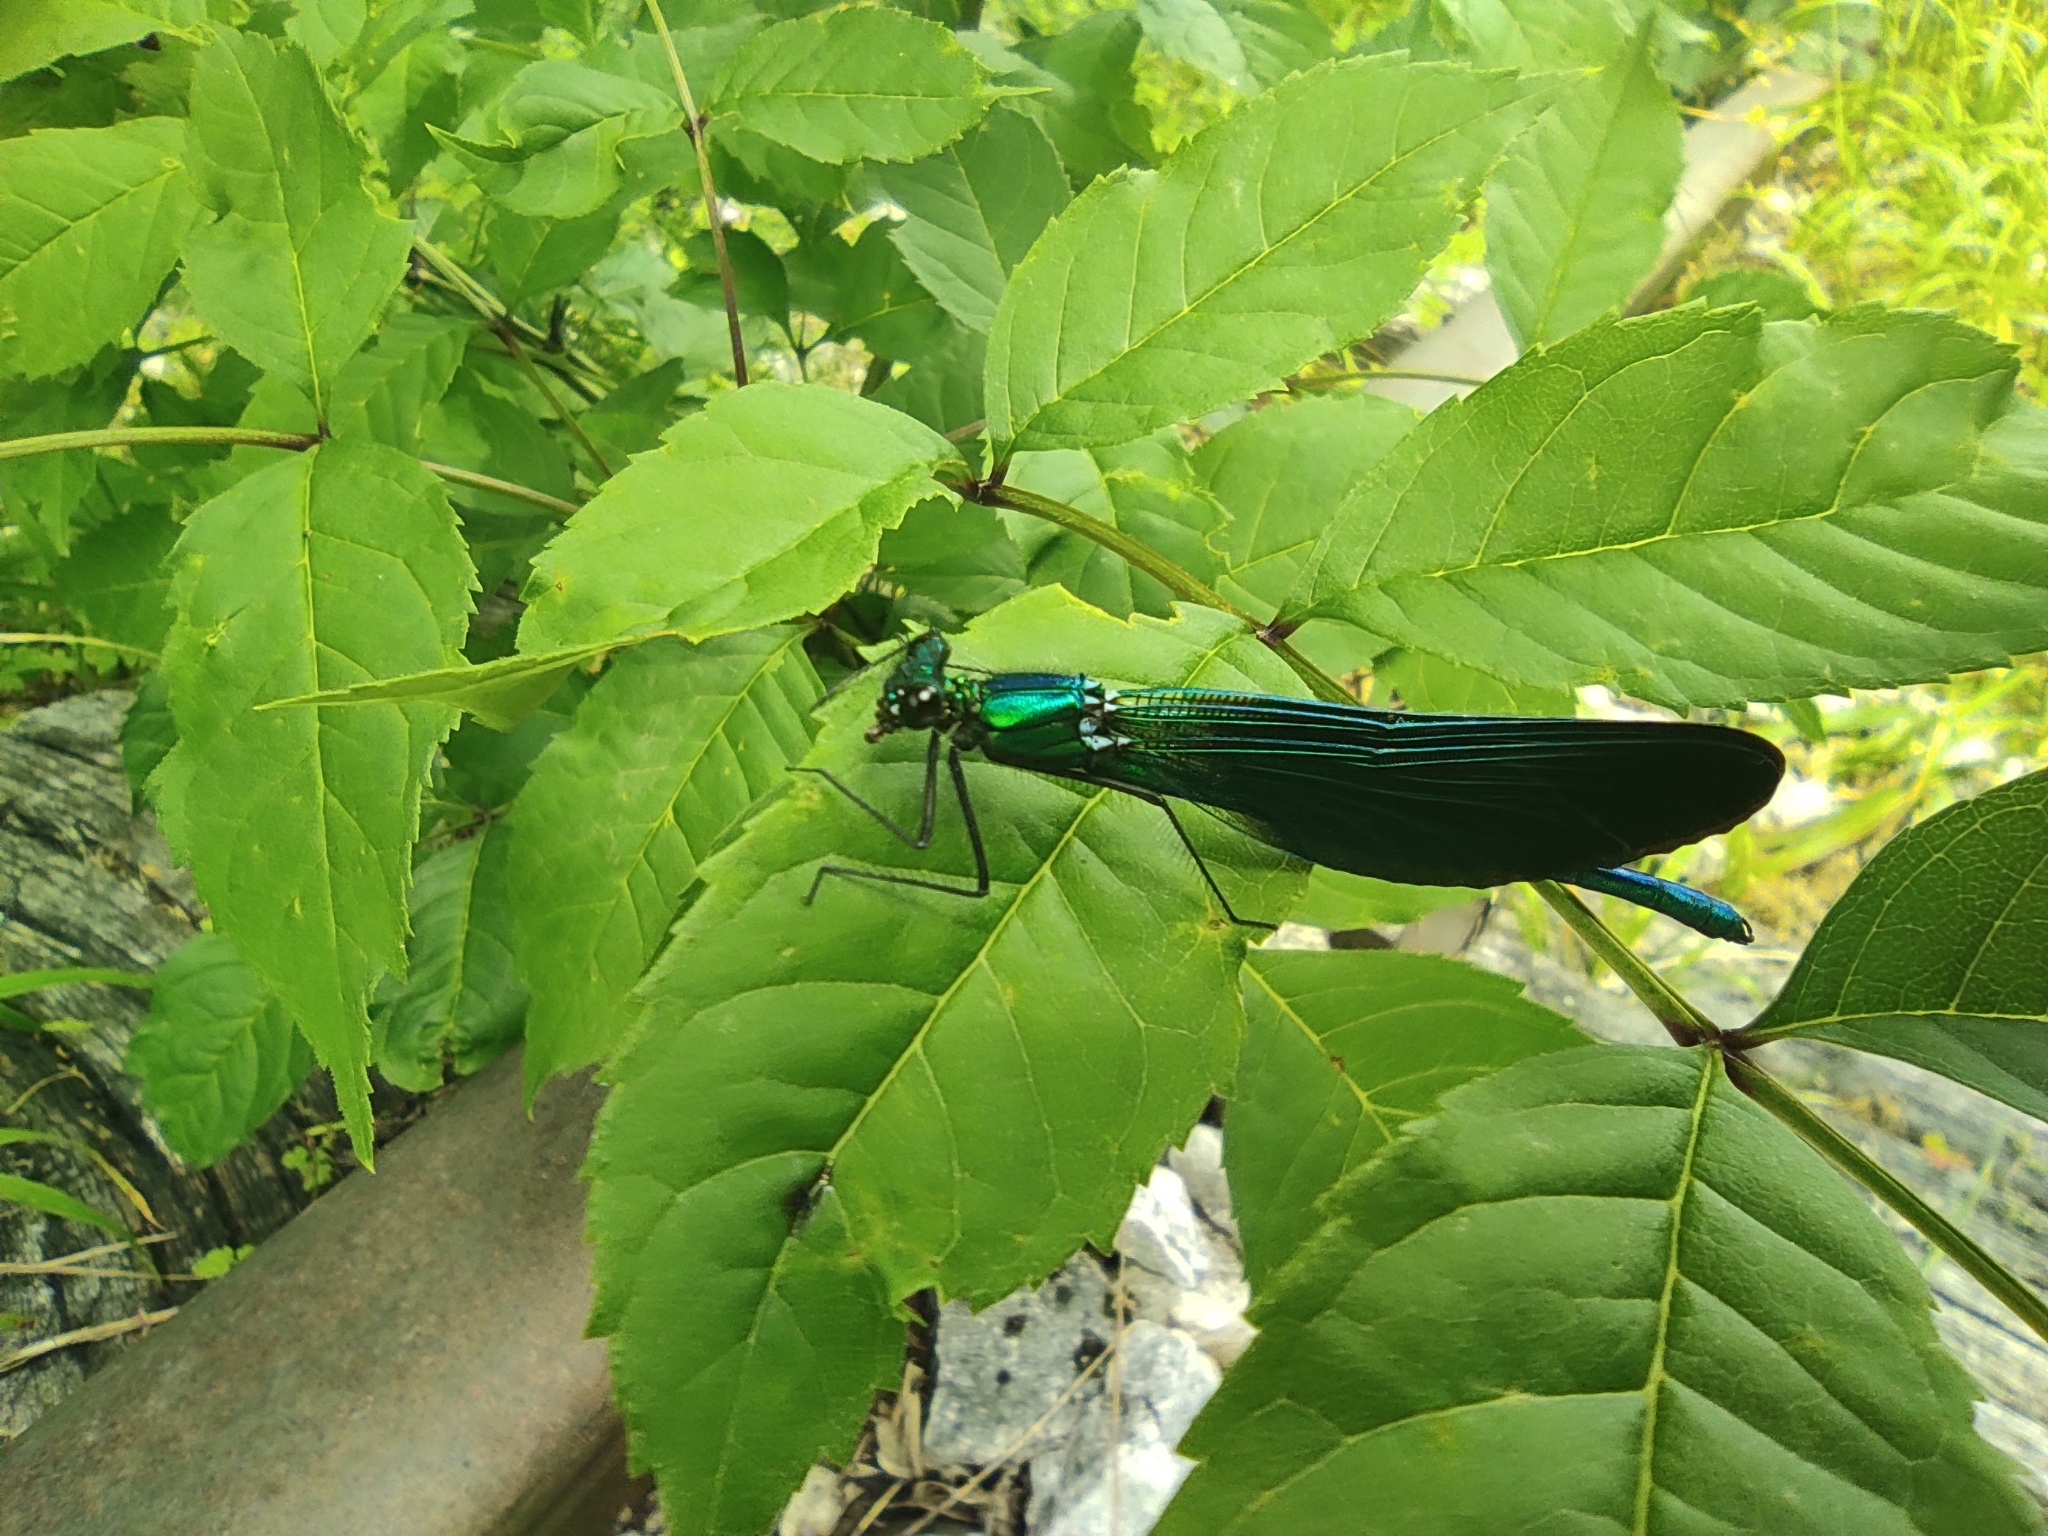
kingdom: Animalia
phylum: Arthropoda
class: Insecta
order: Odonata
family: Calopterygidae
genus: Calopteryx
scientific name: Calopteryx virgo
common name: Beautiful demoiselle
